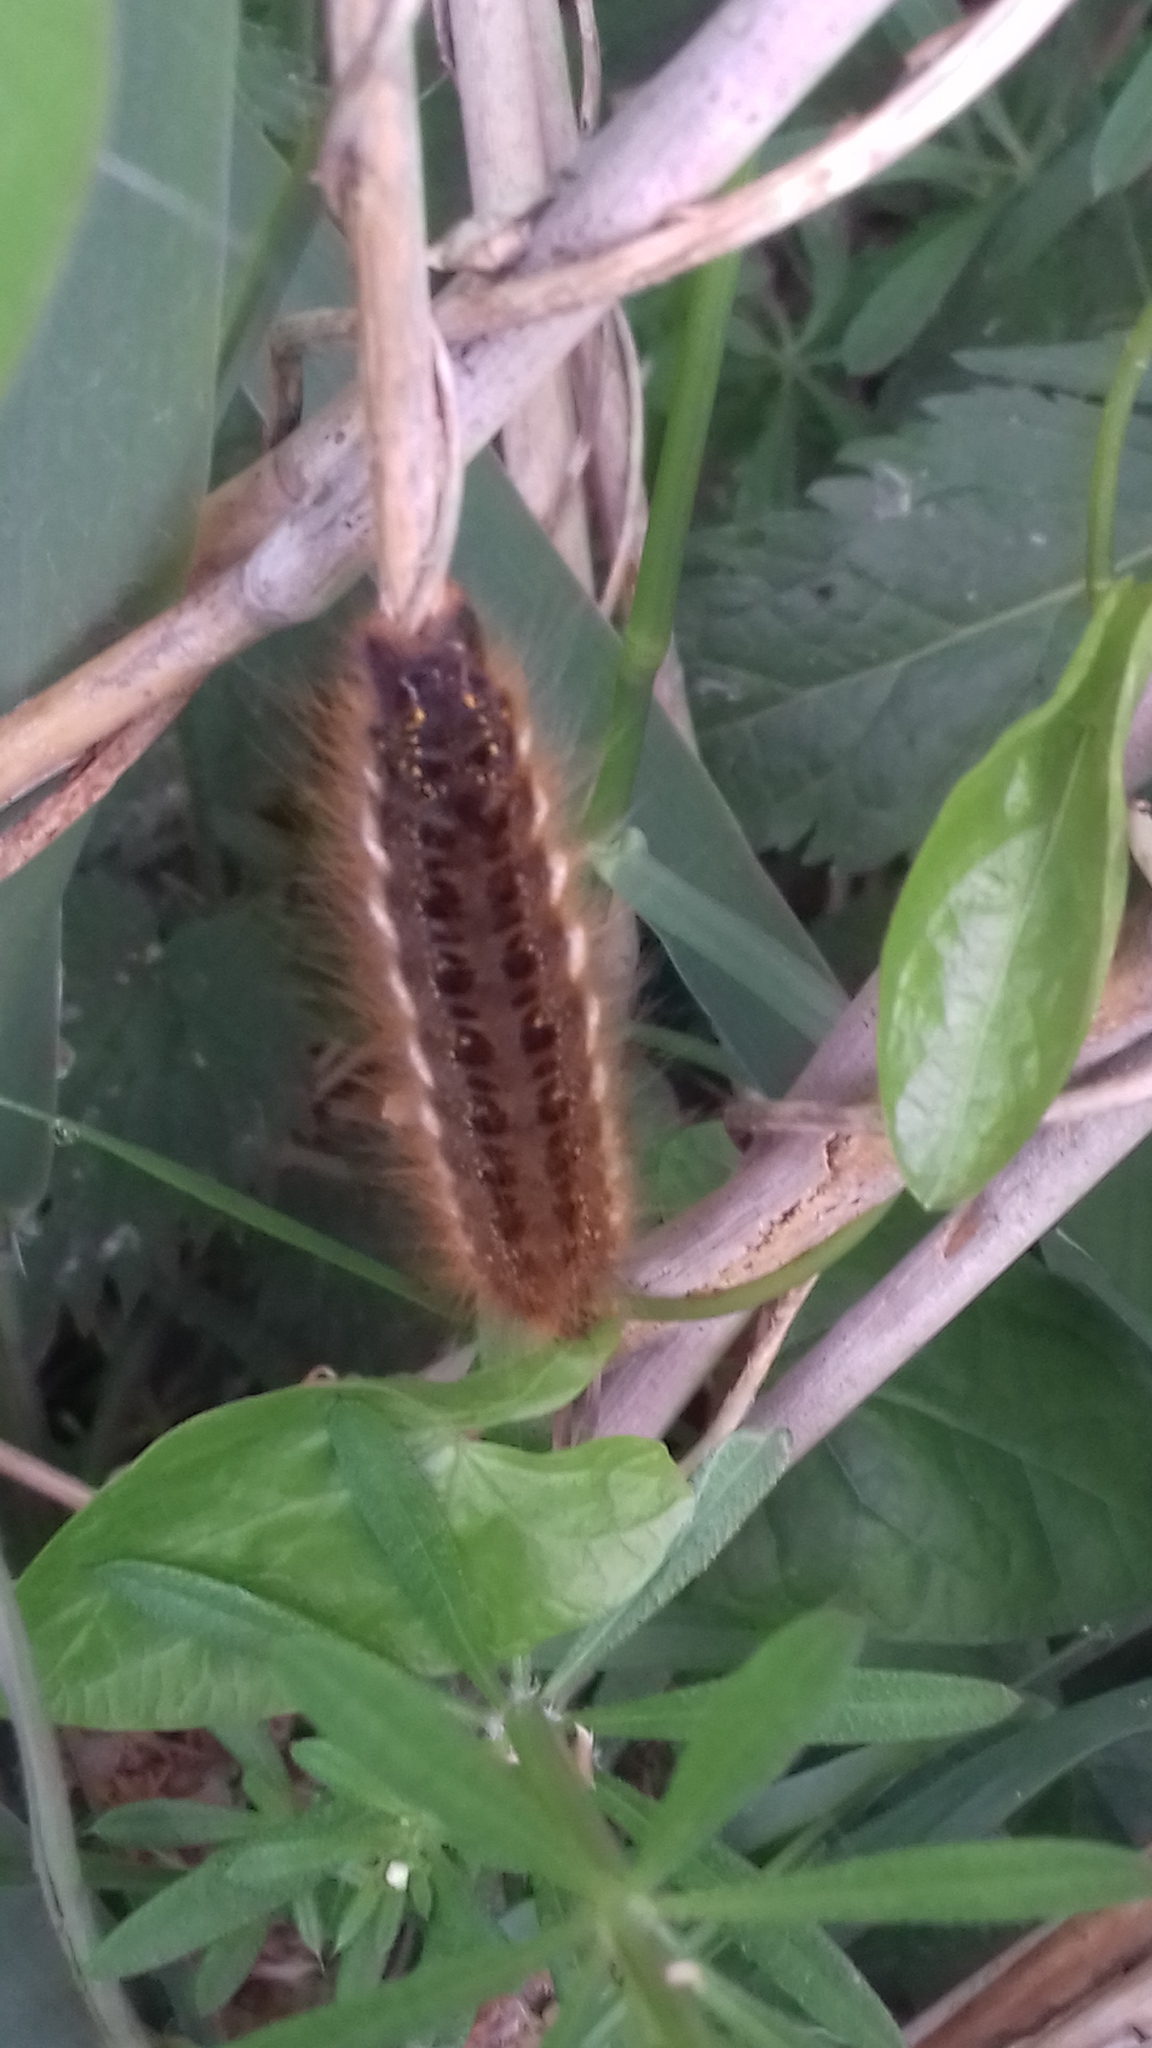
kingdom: Animalia
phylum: Arthropoda
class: Insecta
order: Lepidoptera
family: Lasiocampidae
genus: Euthrix
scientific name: Euthrix potatoria
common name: Drinker
